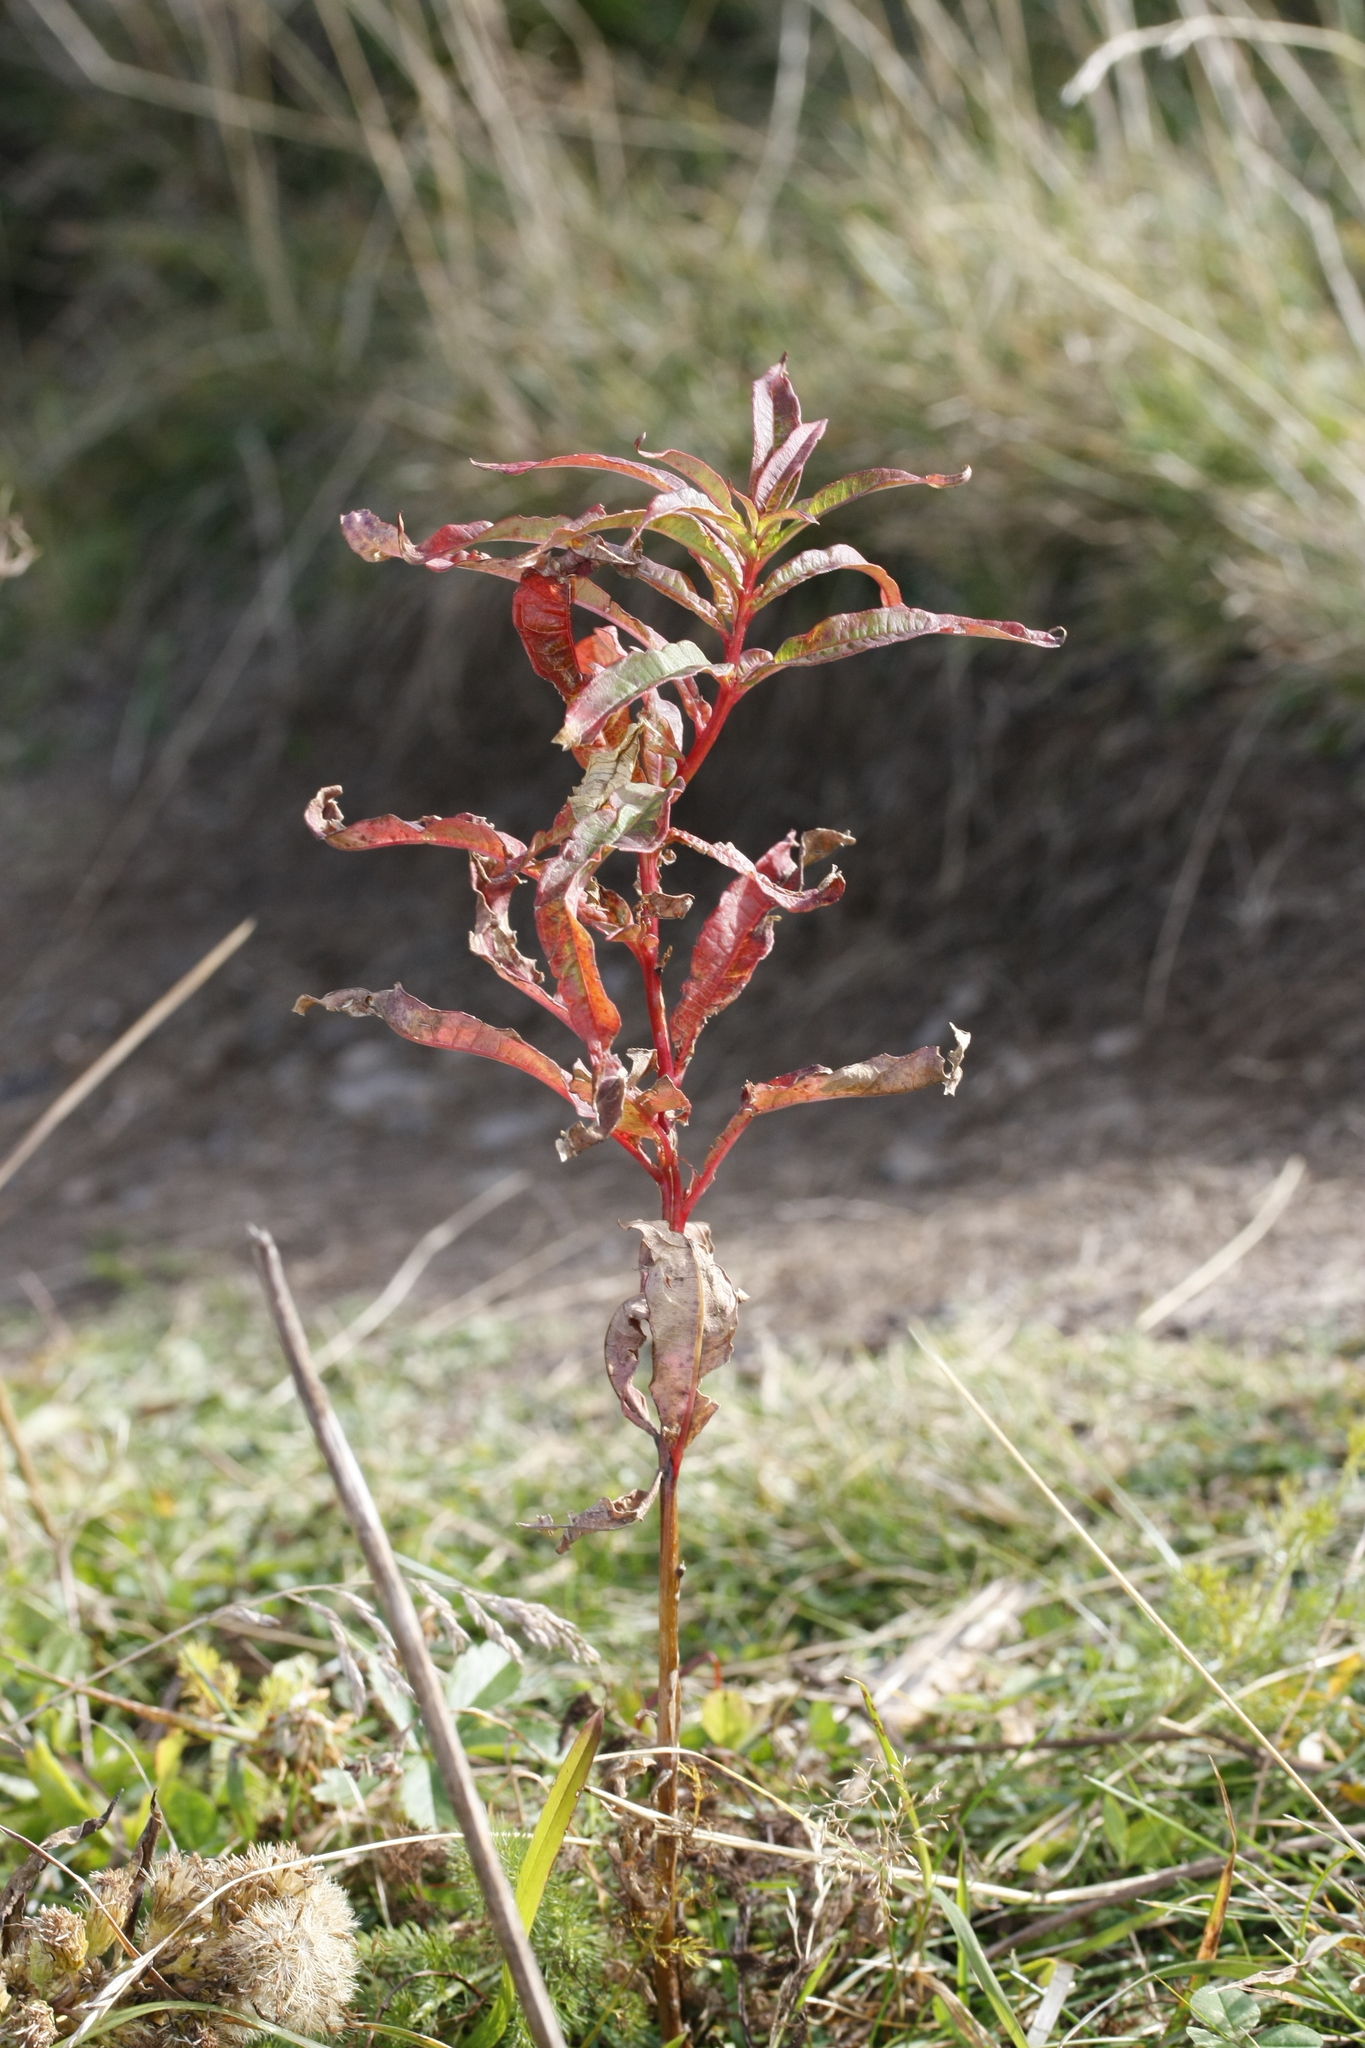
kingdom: Plantae
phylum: Tracheophyta
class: Magnoliopsida
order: Myrtales
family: Onagraceae
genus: Chamaenerion
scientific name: Chamaenerion angustifolium
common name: Fireweed
